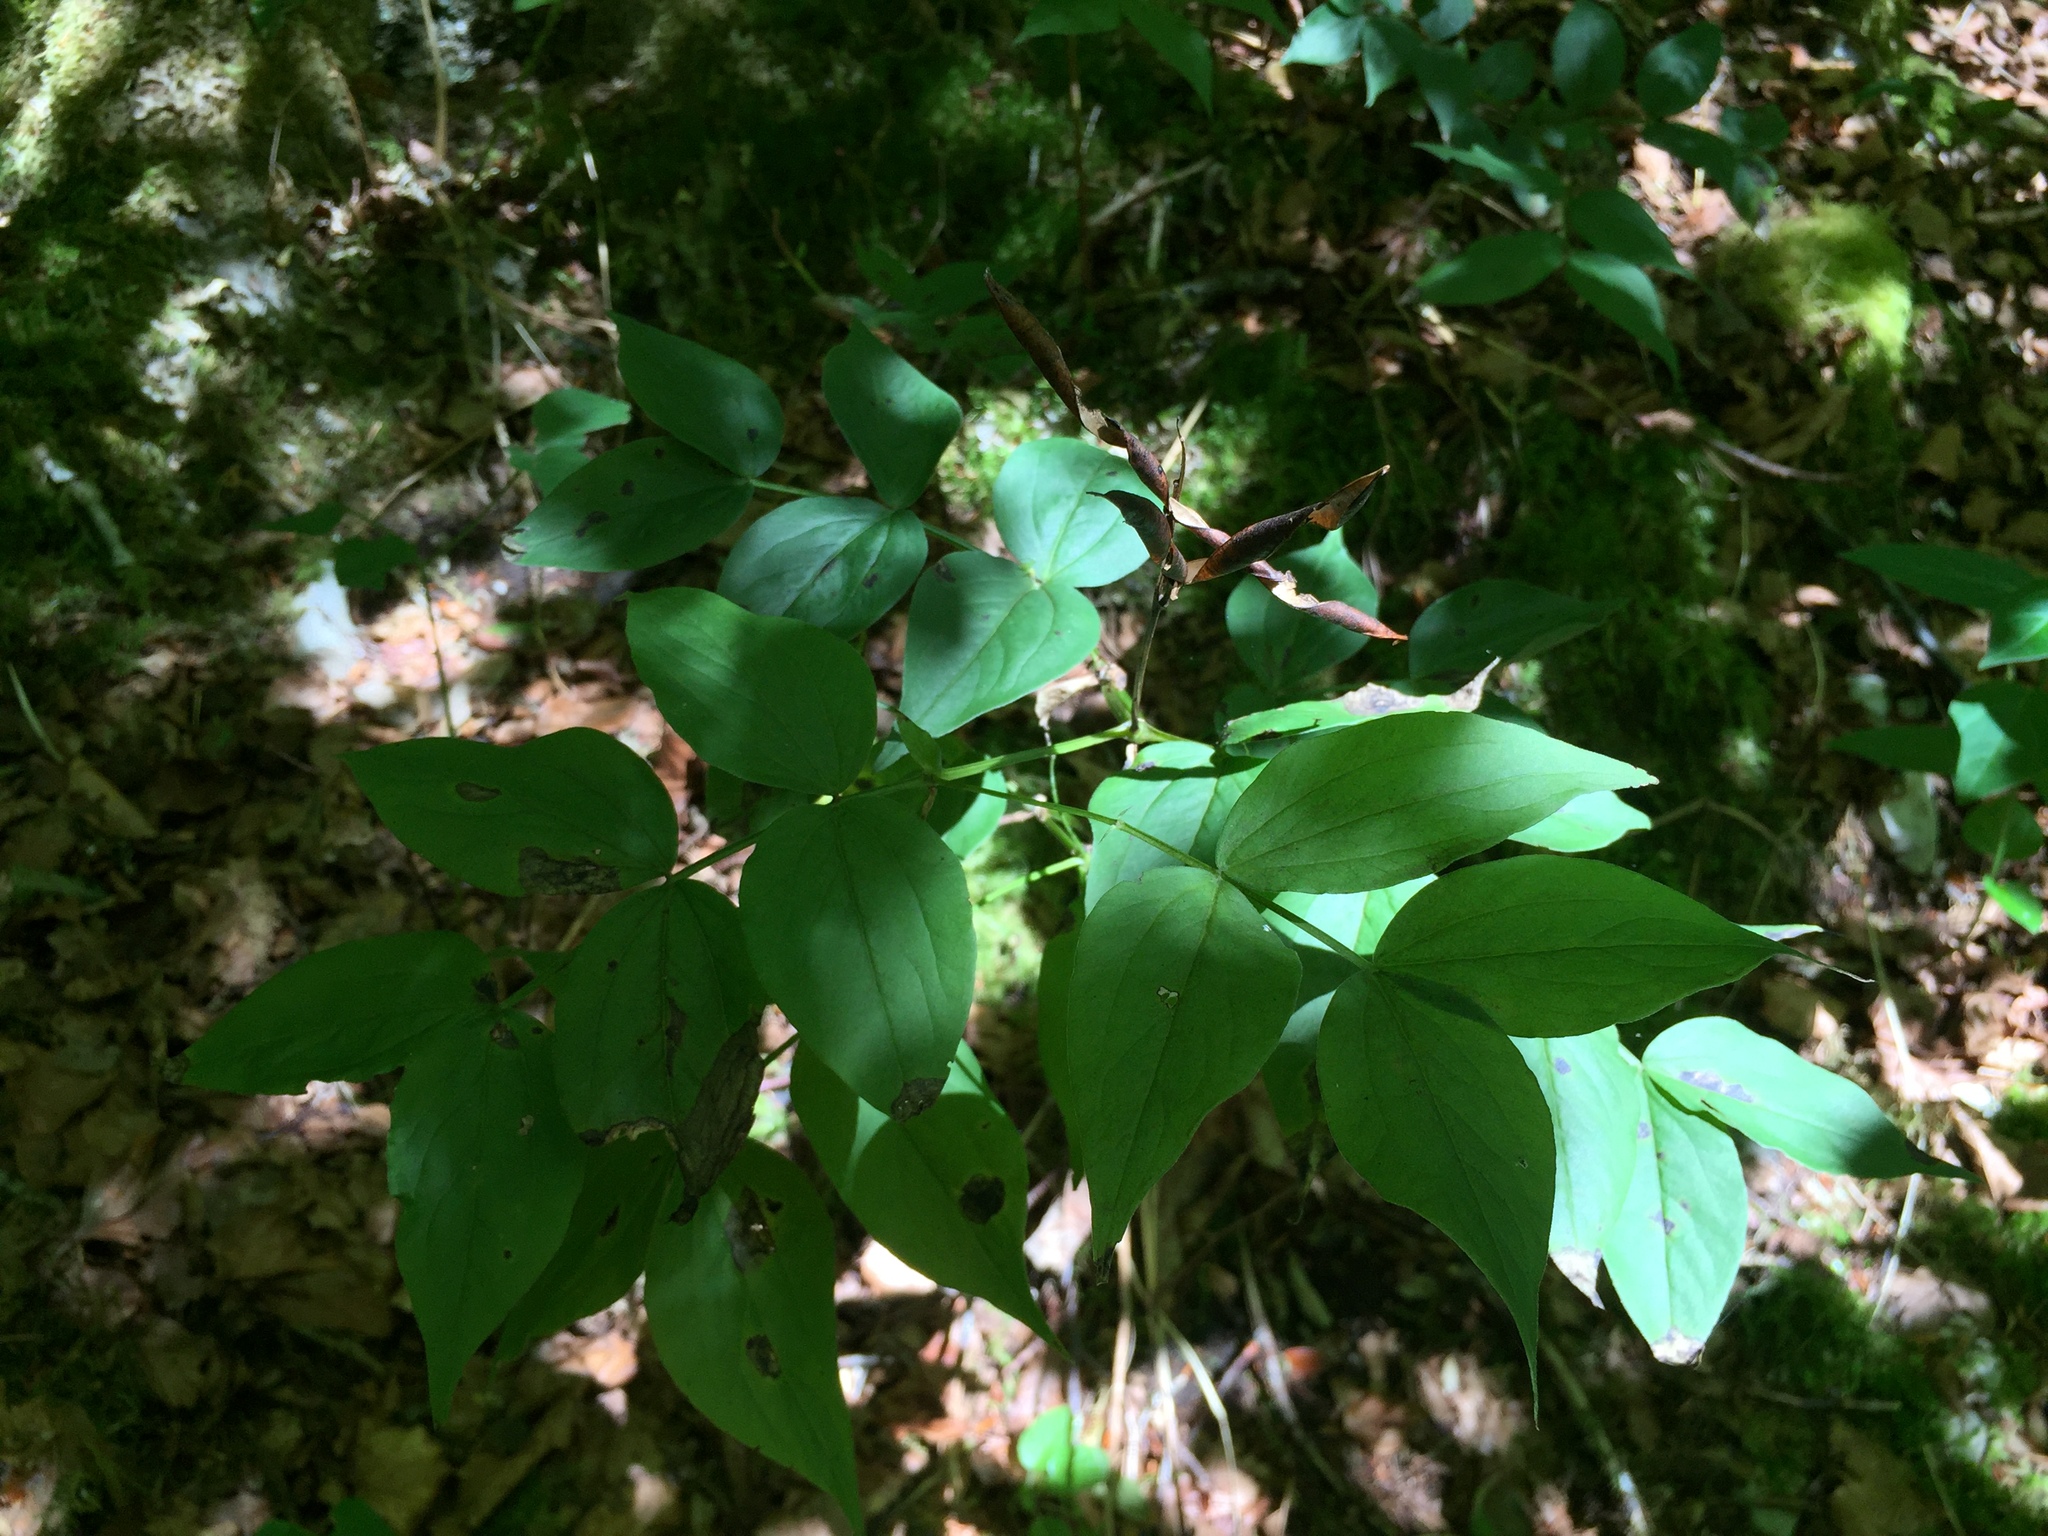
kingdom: Plantae
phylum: Tracheophyta
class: Magnoliopsida
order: Fabales
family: Fabaceae
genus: Lathyrus
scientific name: Lathyrus vernus
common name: Spring pea
